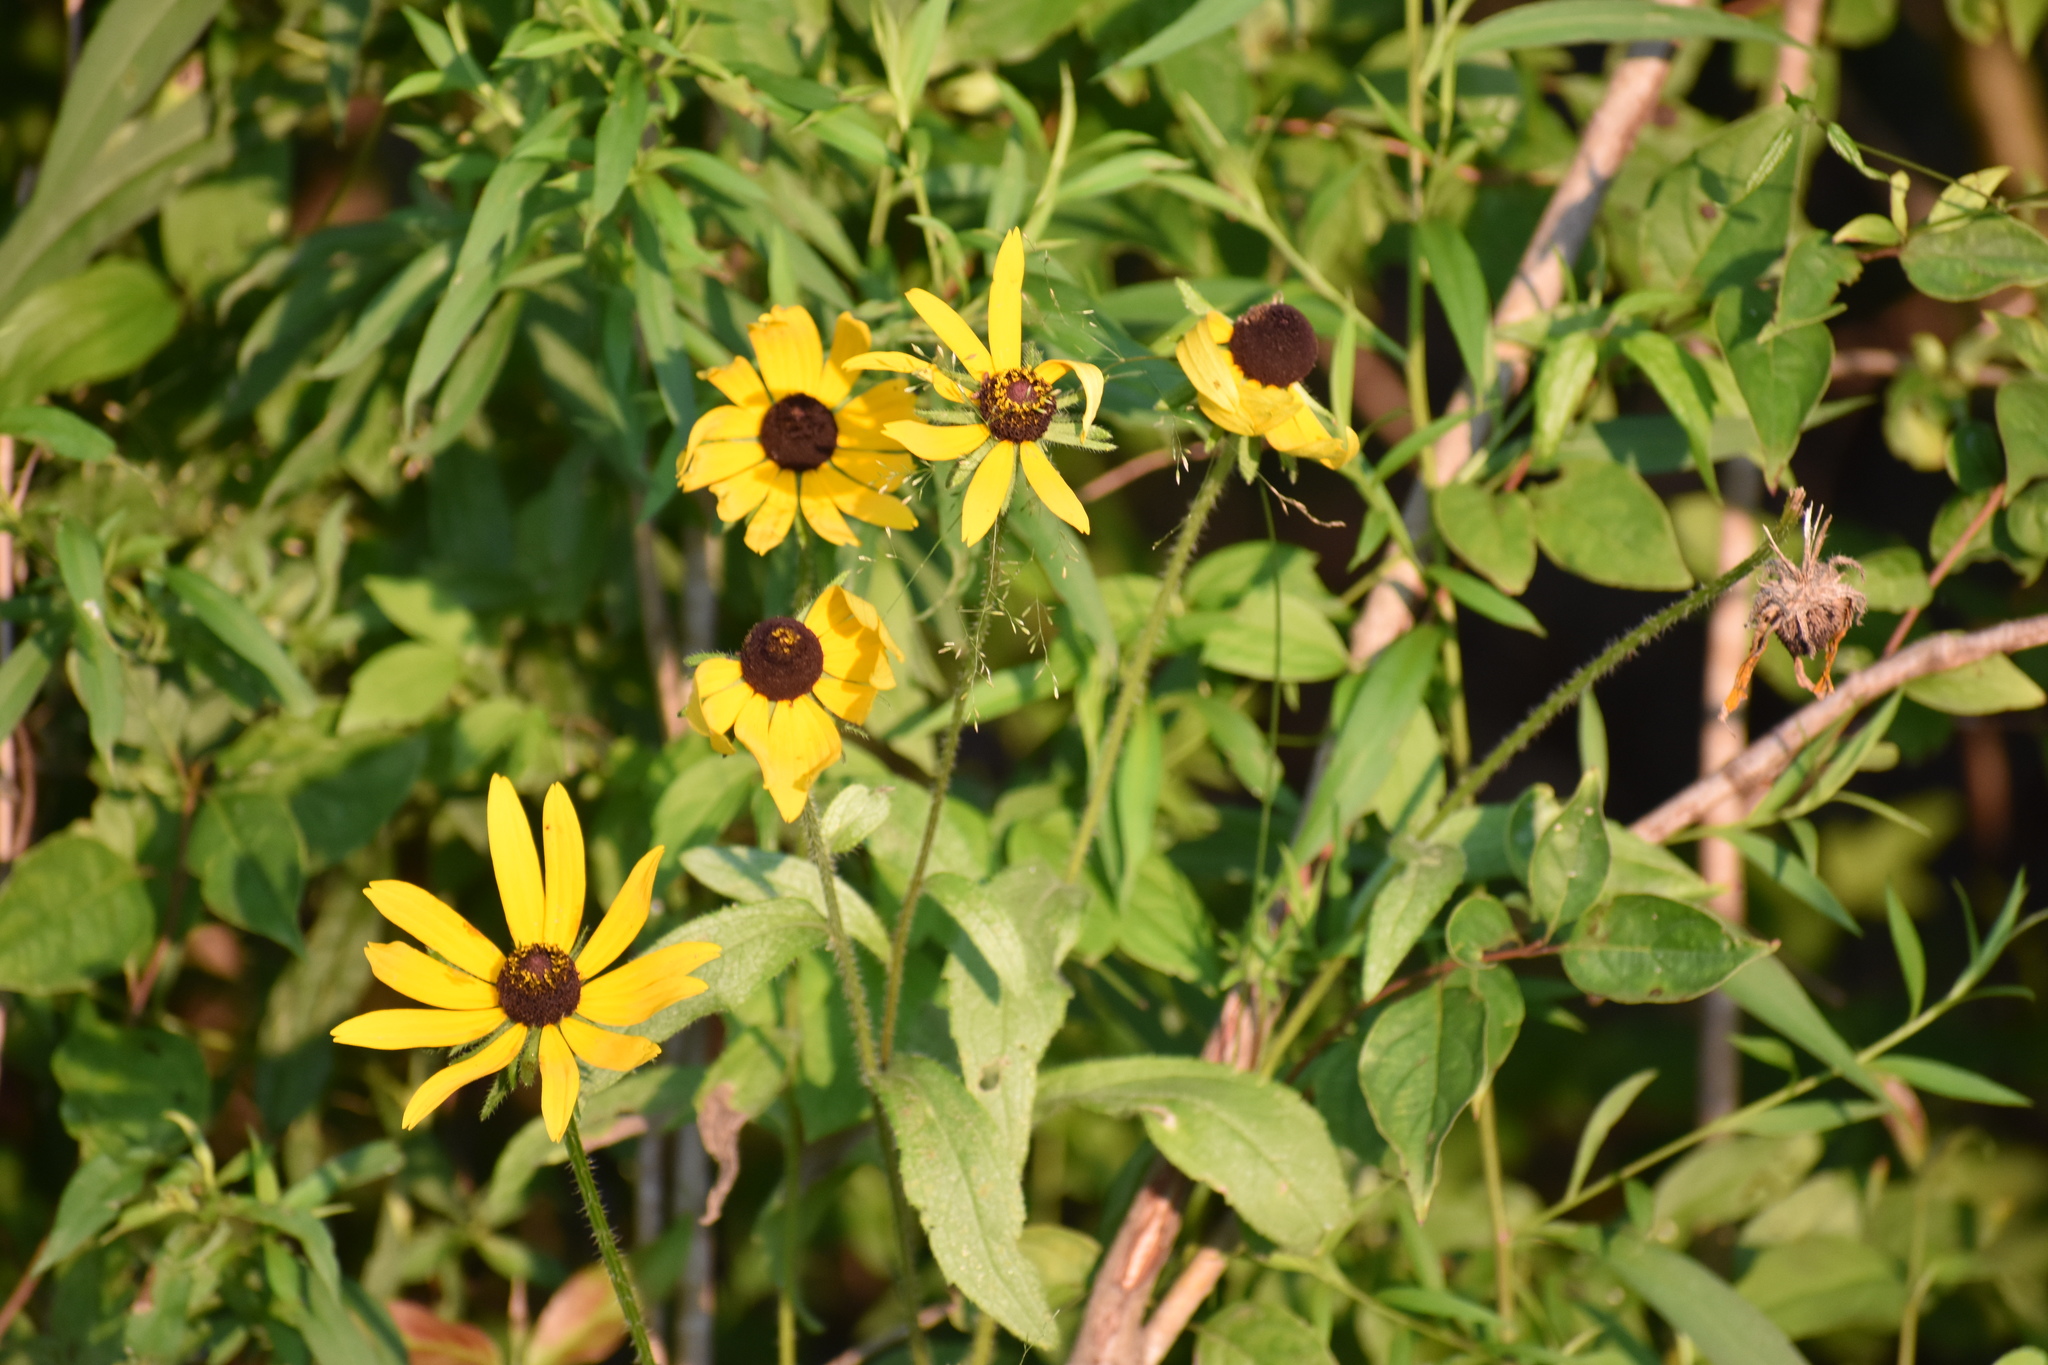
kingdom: Plantae
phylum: Tracheophyta
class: Magnoliopsida
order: Asterales
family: Asteraceae
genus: Rudbeckia
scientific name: Rudbeckia hirta
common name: Black-eyed-susan
